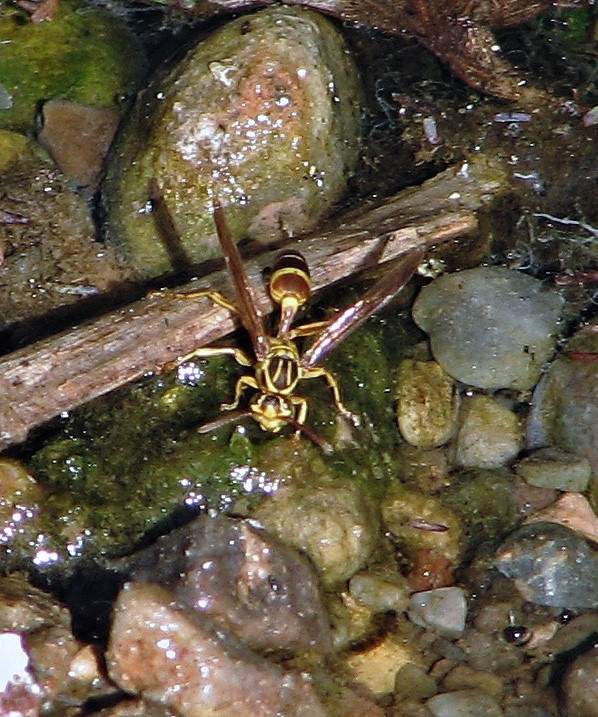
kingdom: Animalia
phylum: Arthropoda
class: Insecta
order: Hymenoptera
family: Vespidae
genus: Agelaia
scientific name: Agelaia
